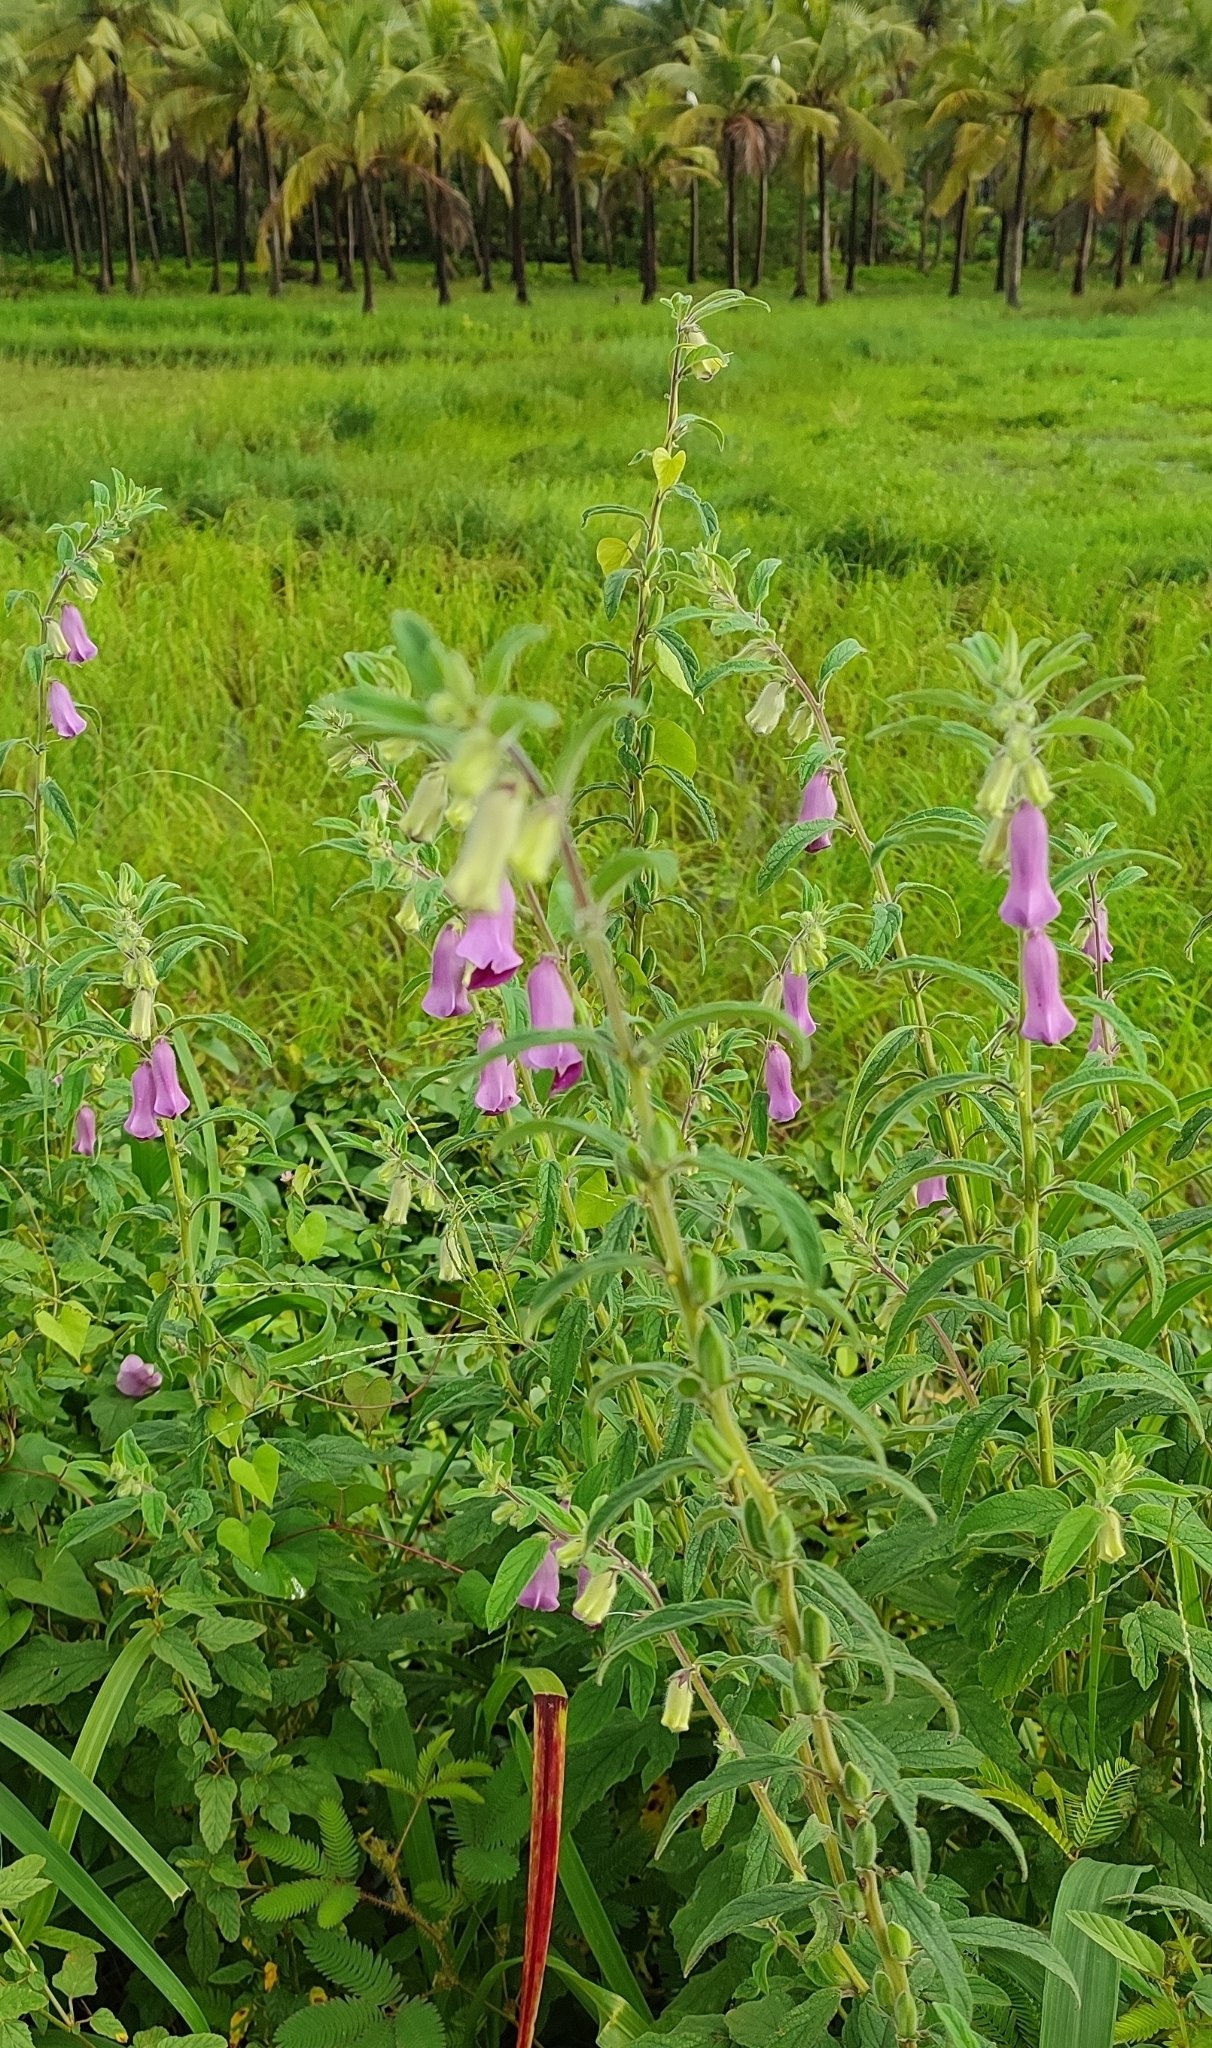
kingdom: Plantae
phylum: Tracheophyta
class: Magnoliopsida
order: Lamiales
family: Pedaliaceae
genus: Sesamum
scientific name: Sesamum indicum
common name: Sesame
